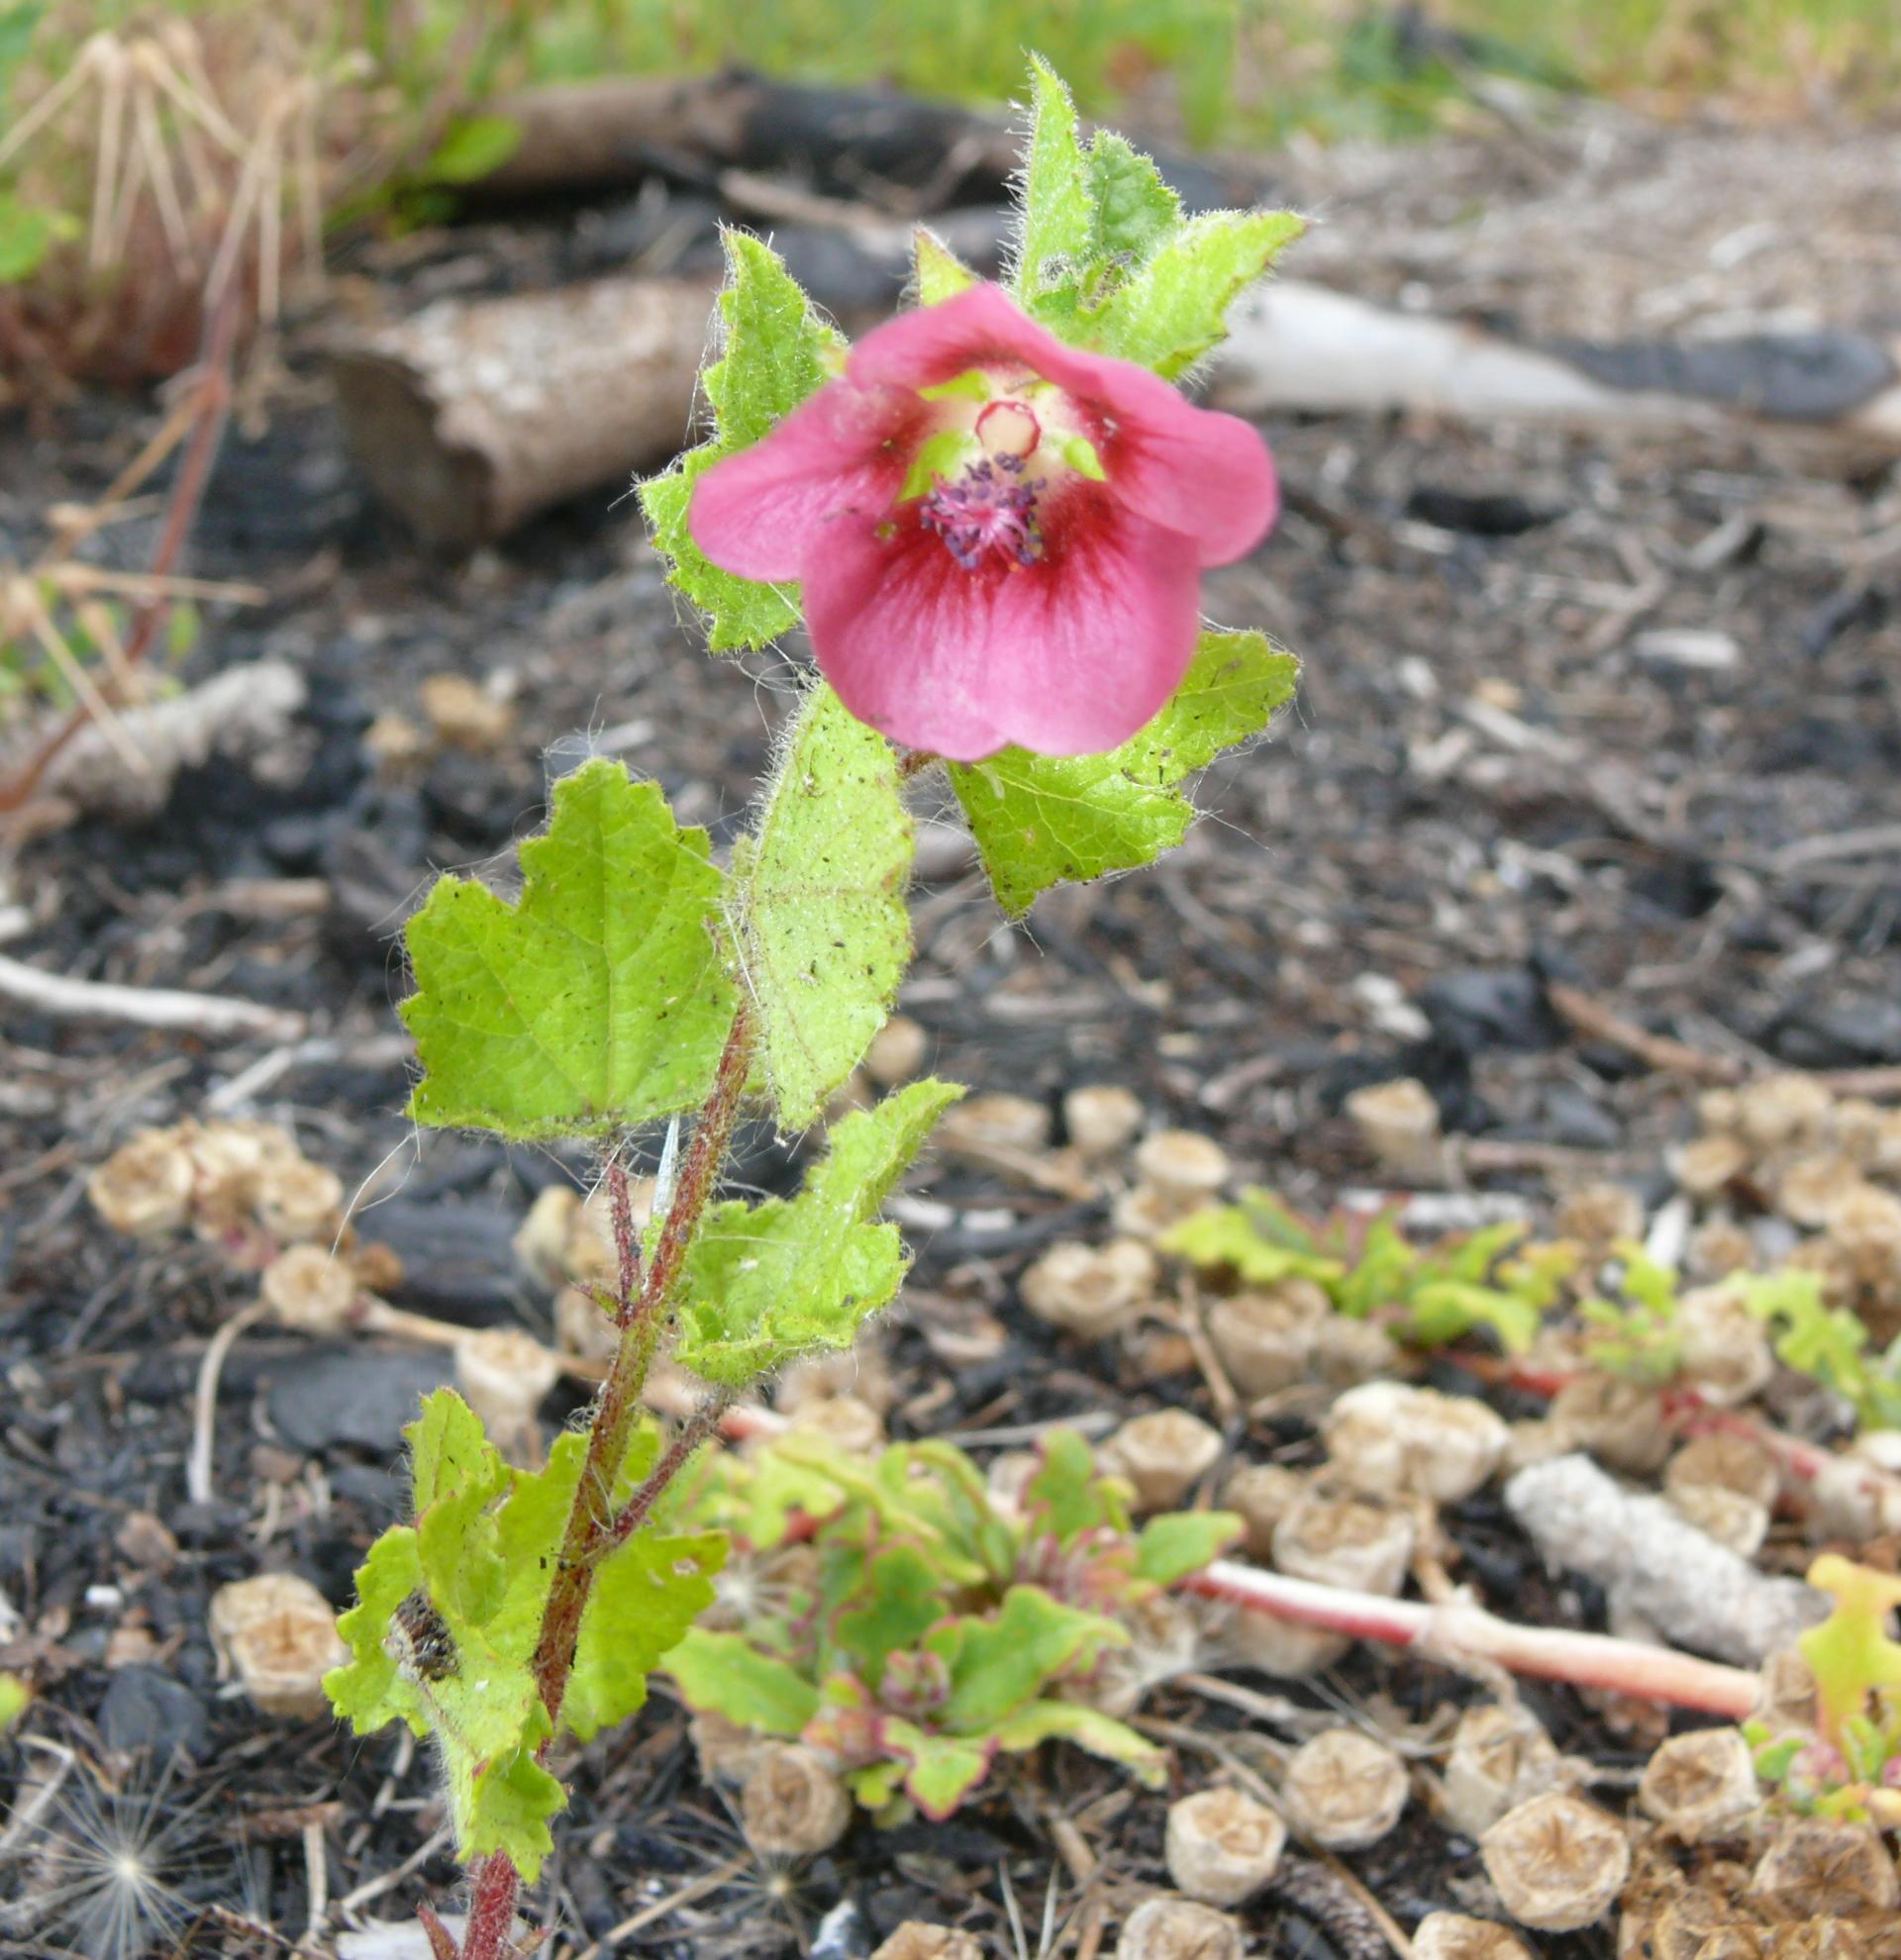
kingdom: Plantae
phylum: Tracheophyta
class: Magnoliopsida
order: Malvales
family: Malvaceae
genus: Anisodontea
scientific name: Anisodontea scabrosa
